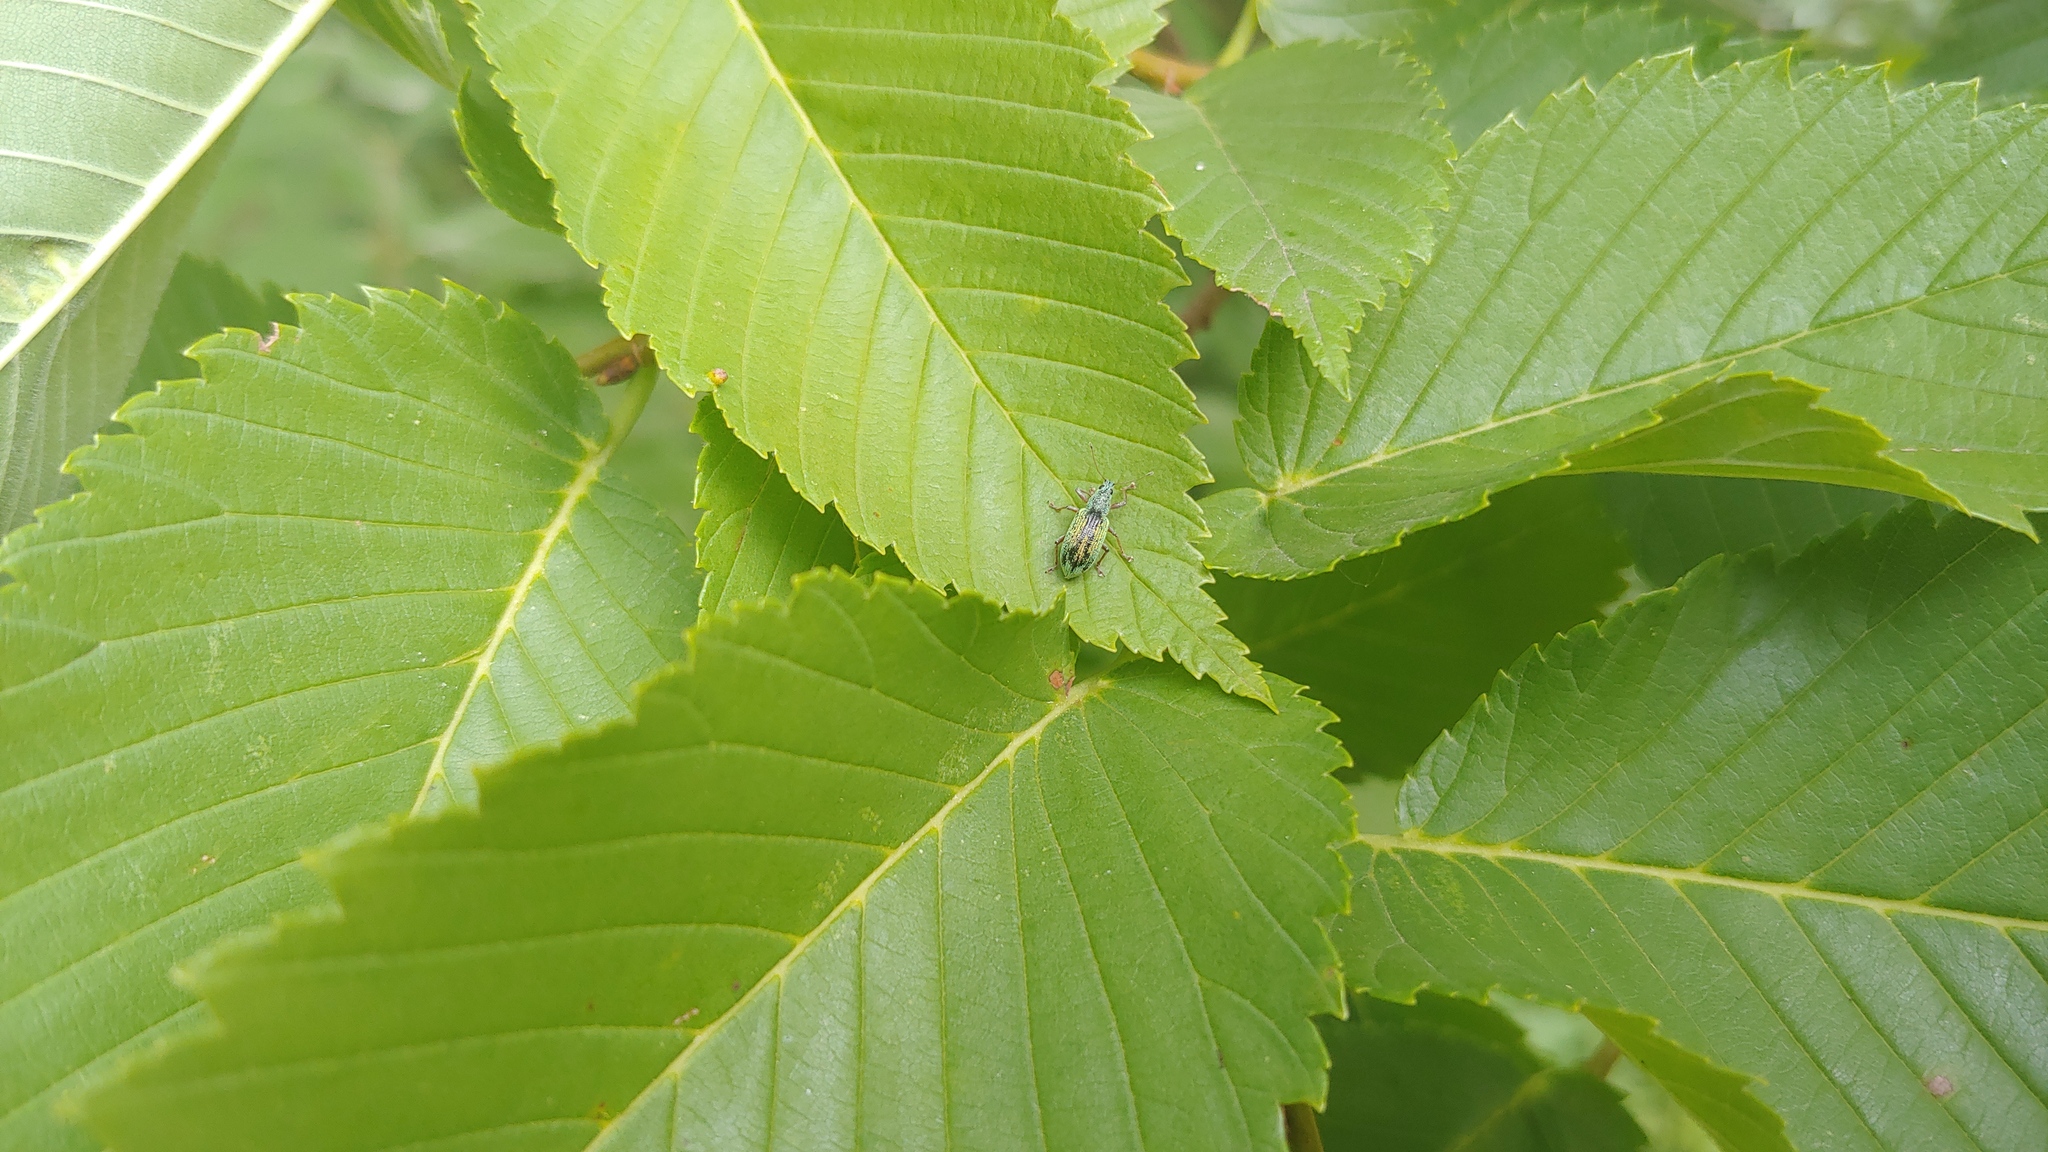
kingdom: Animalia
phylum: Arthropoda
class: Insecta
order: Coleoptera
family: Curculionidae
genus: Polydrusus
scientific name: Polydrusus formosus
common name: Weevil
